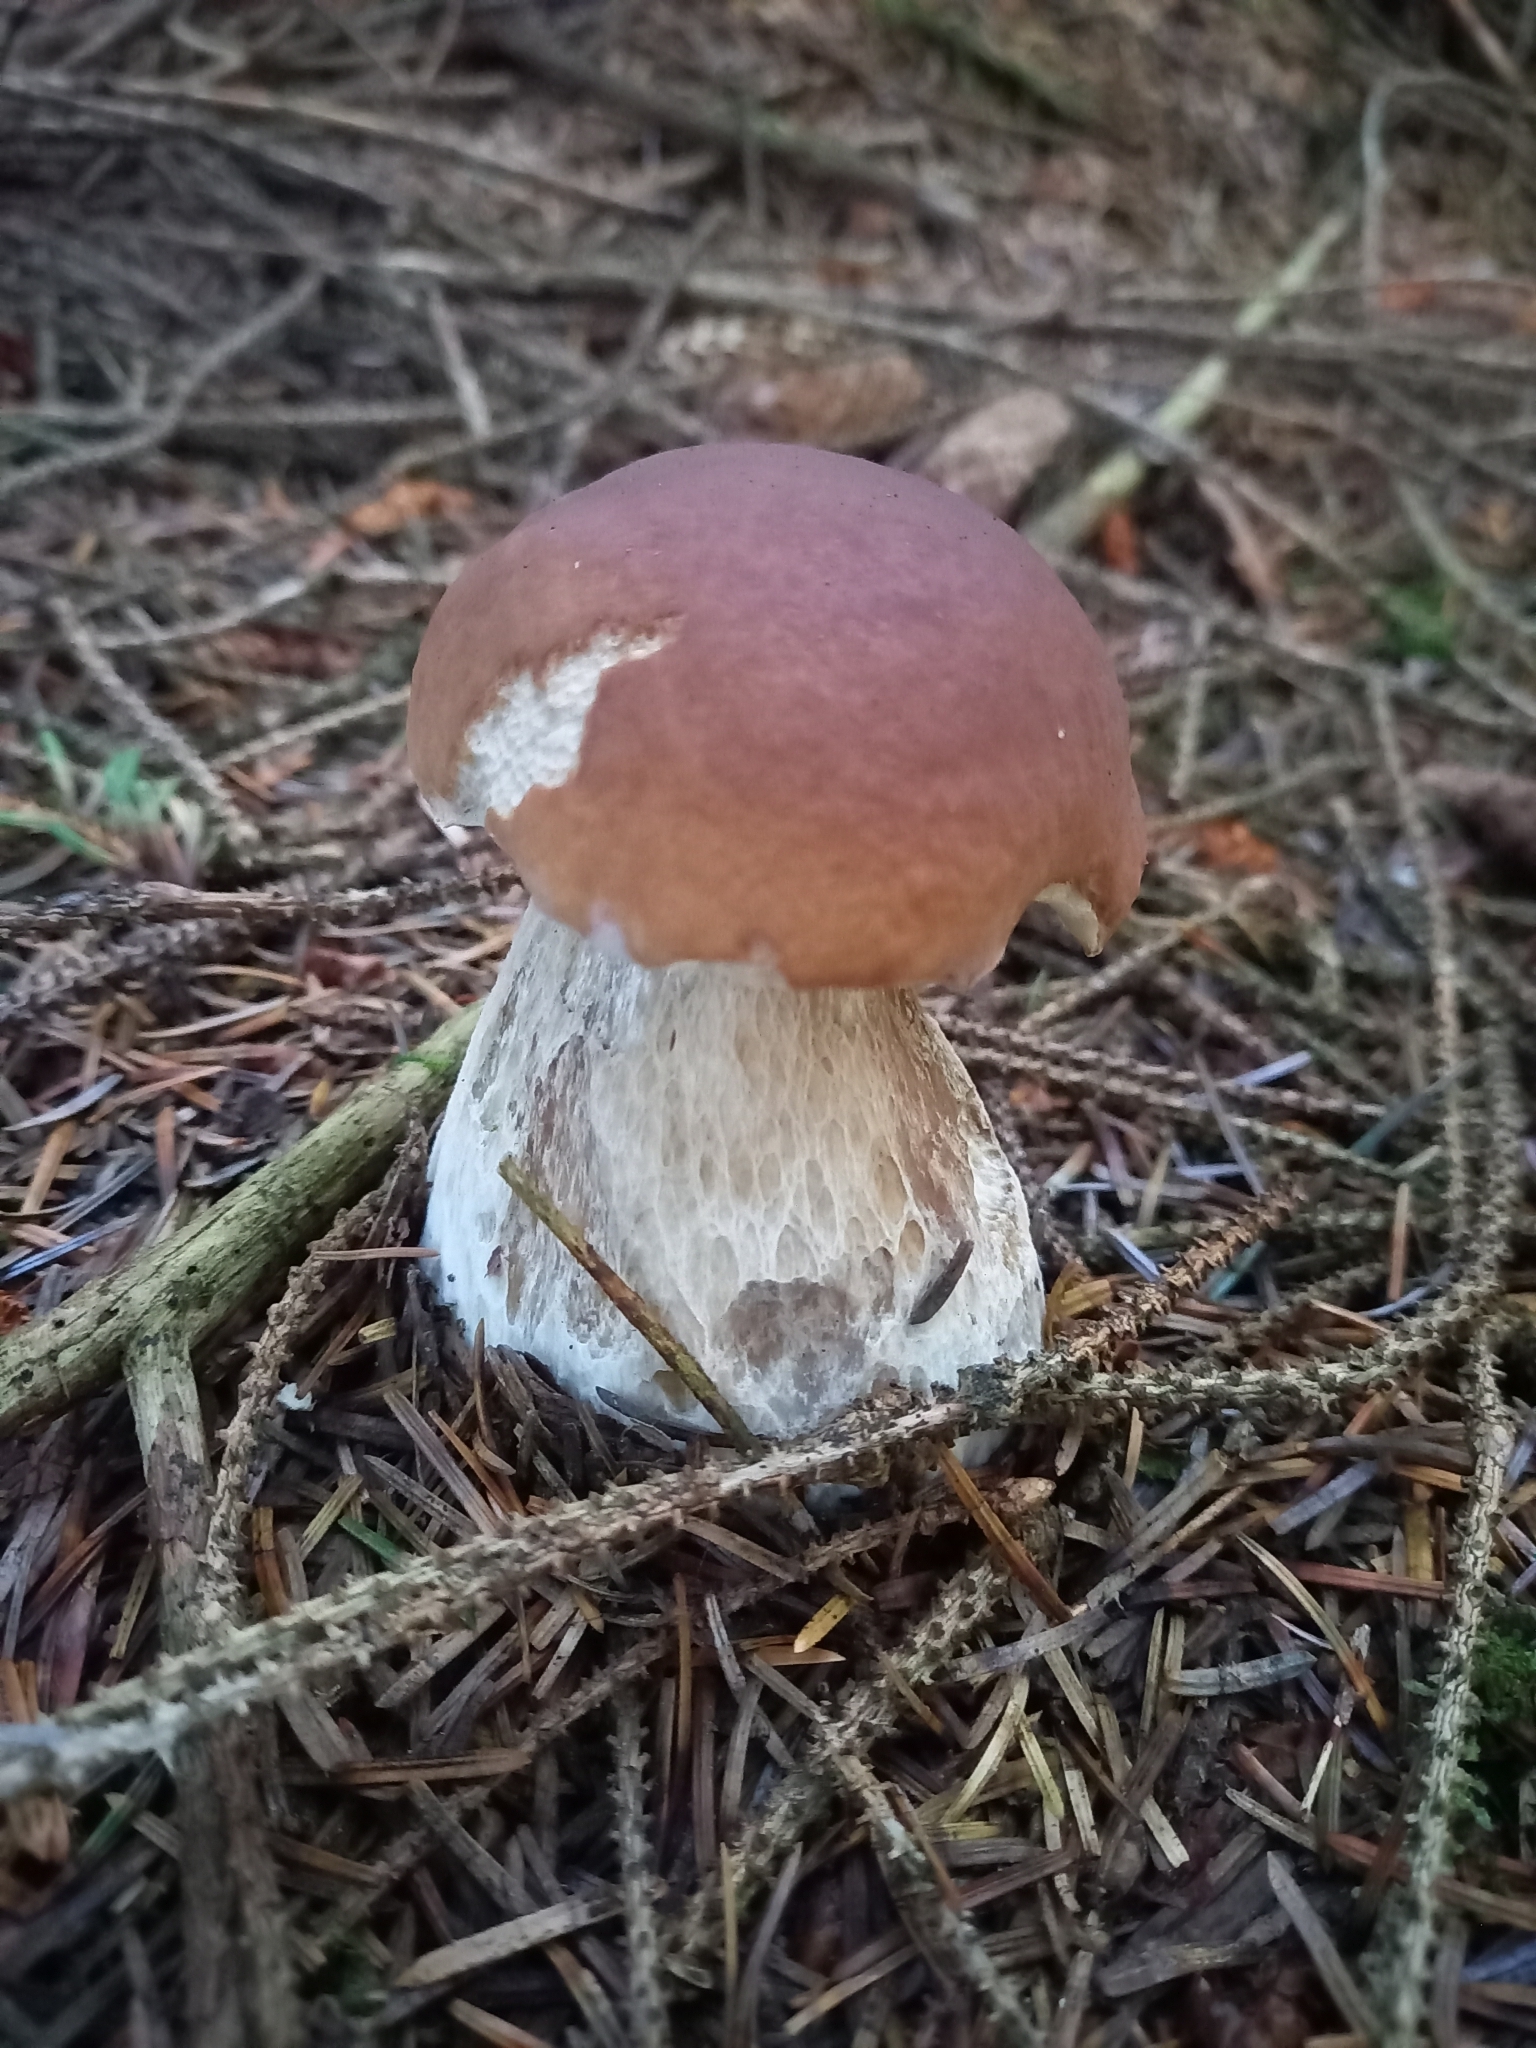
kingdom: Fungi
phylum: Basidiomycota
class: Agaricomycetes
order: Boletales
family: Boletaceae
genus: Boletus
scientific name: Boletus edulis
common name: Cep
